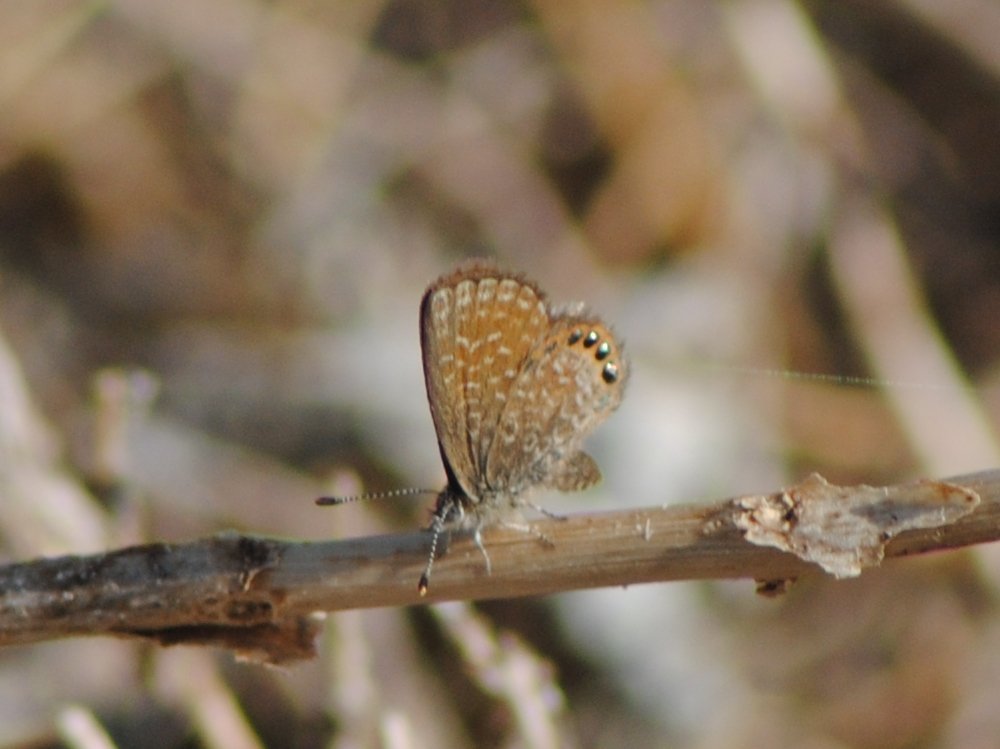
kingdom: Animalia
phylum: Arthropoda
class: Insecta
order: Lepidoptera
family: Lycaenidae
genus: Brephidium
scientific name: Brephidium isophthalma
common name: Eastern pygmy-blue
